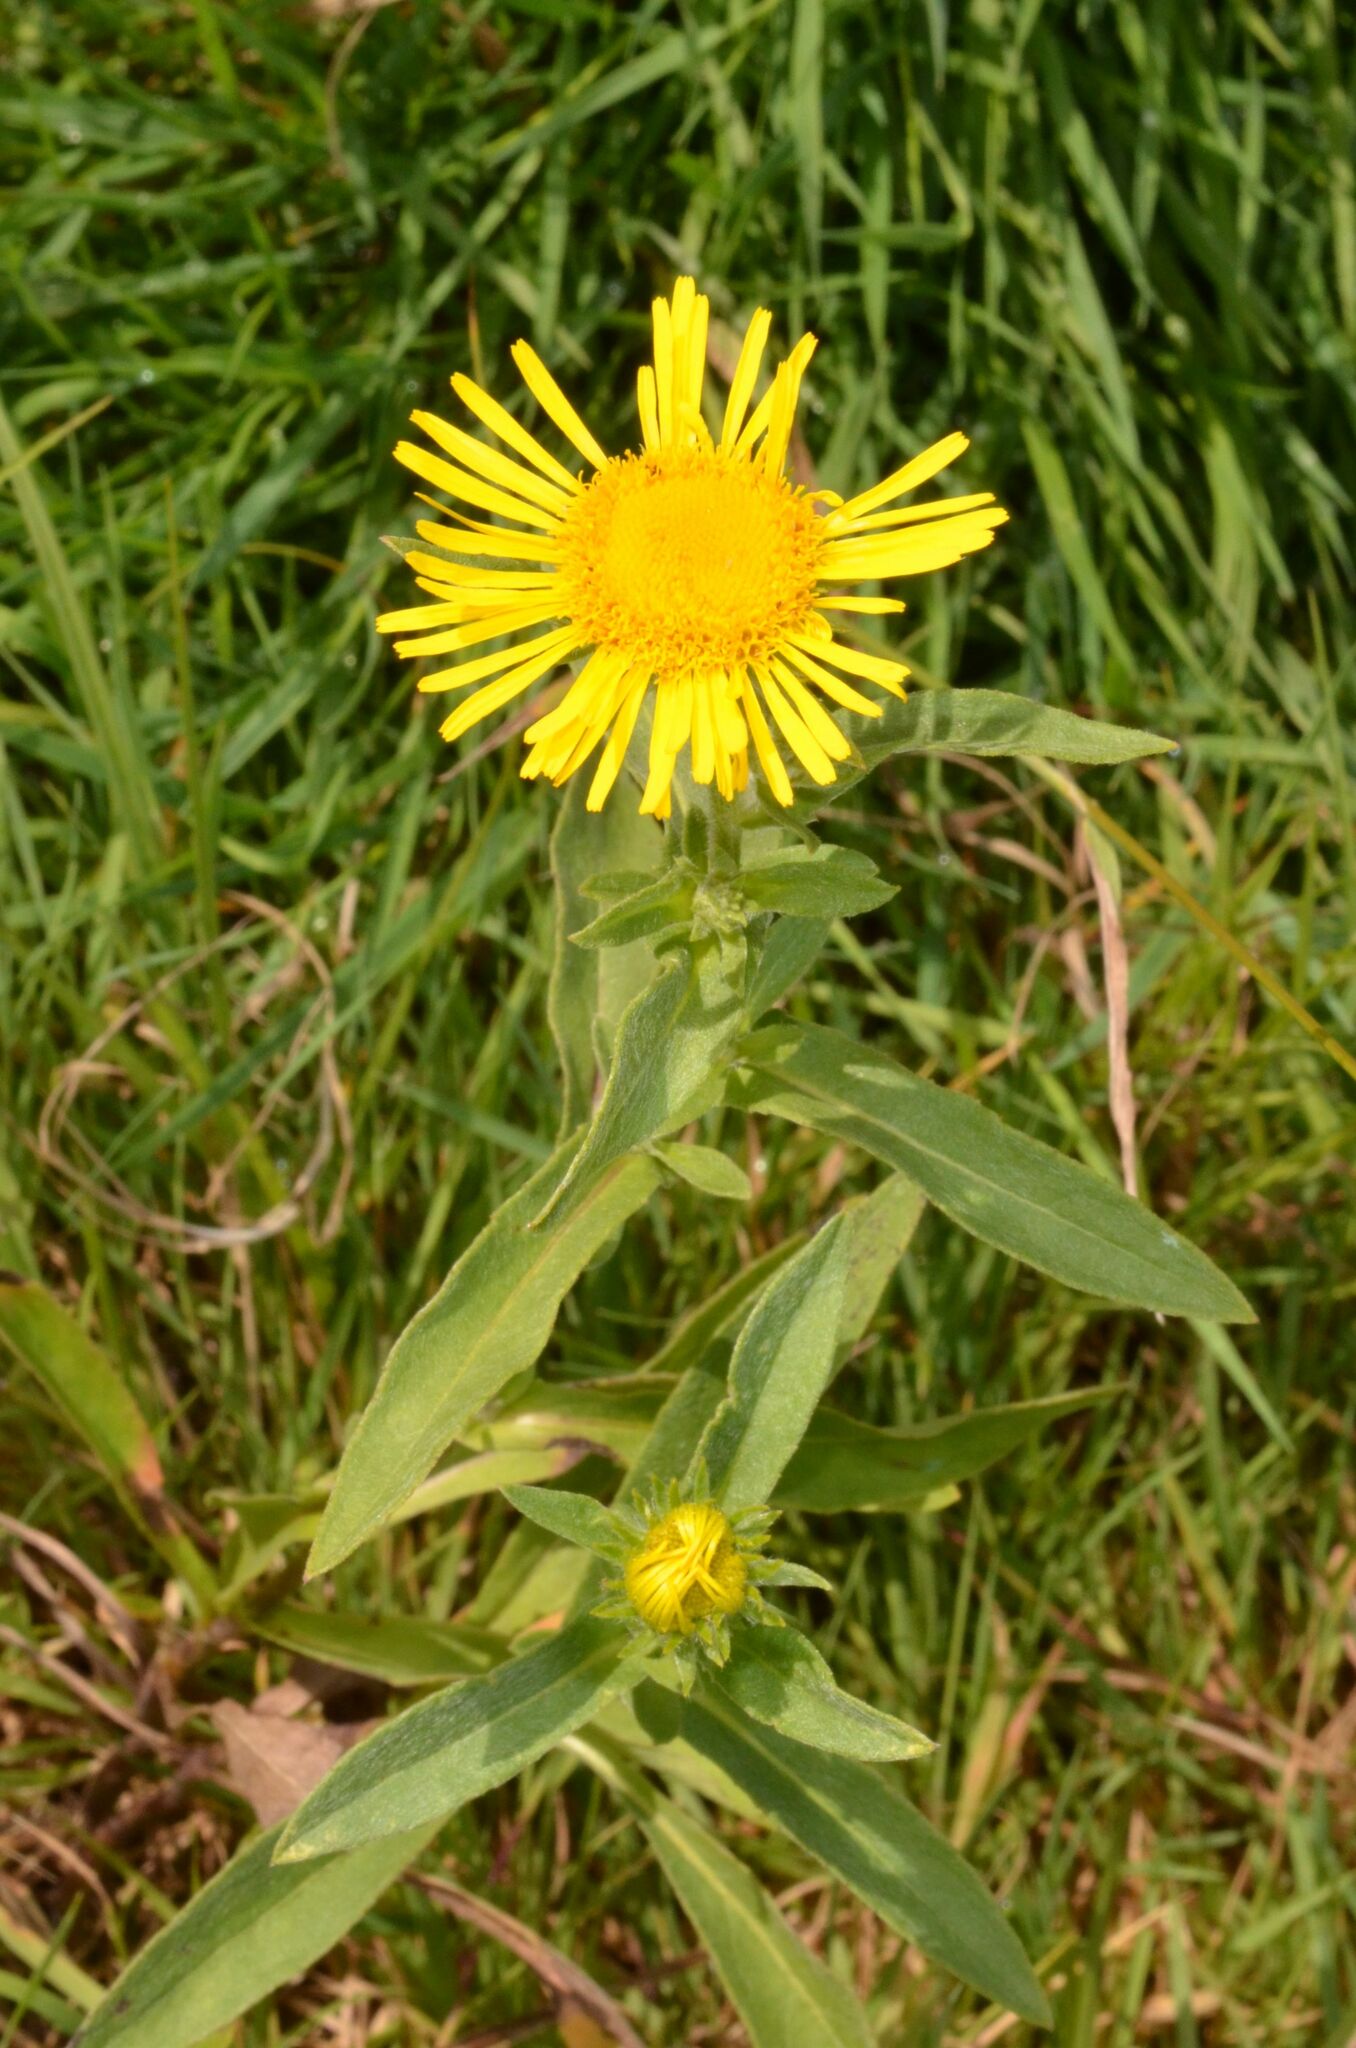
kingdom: Plantae
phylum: Tracheophyta
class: Magnoliopsida
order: Asterales
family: Asteraceae
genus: Pentanema
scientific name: Pentanema britannicum
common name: British elecampane
